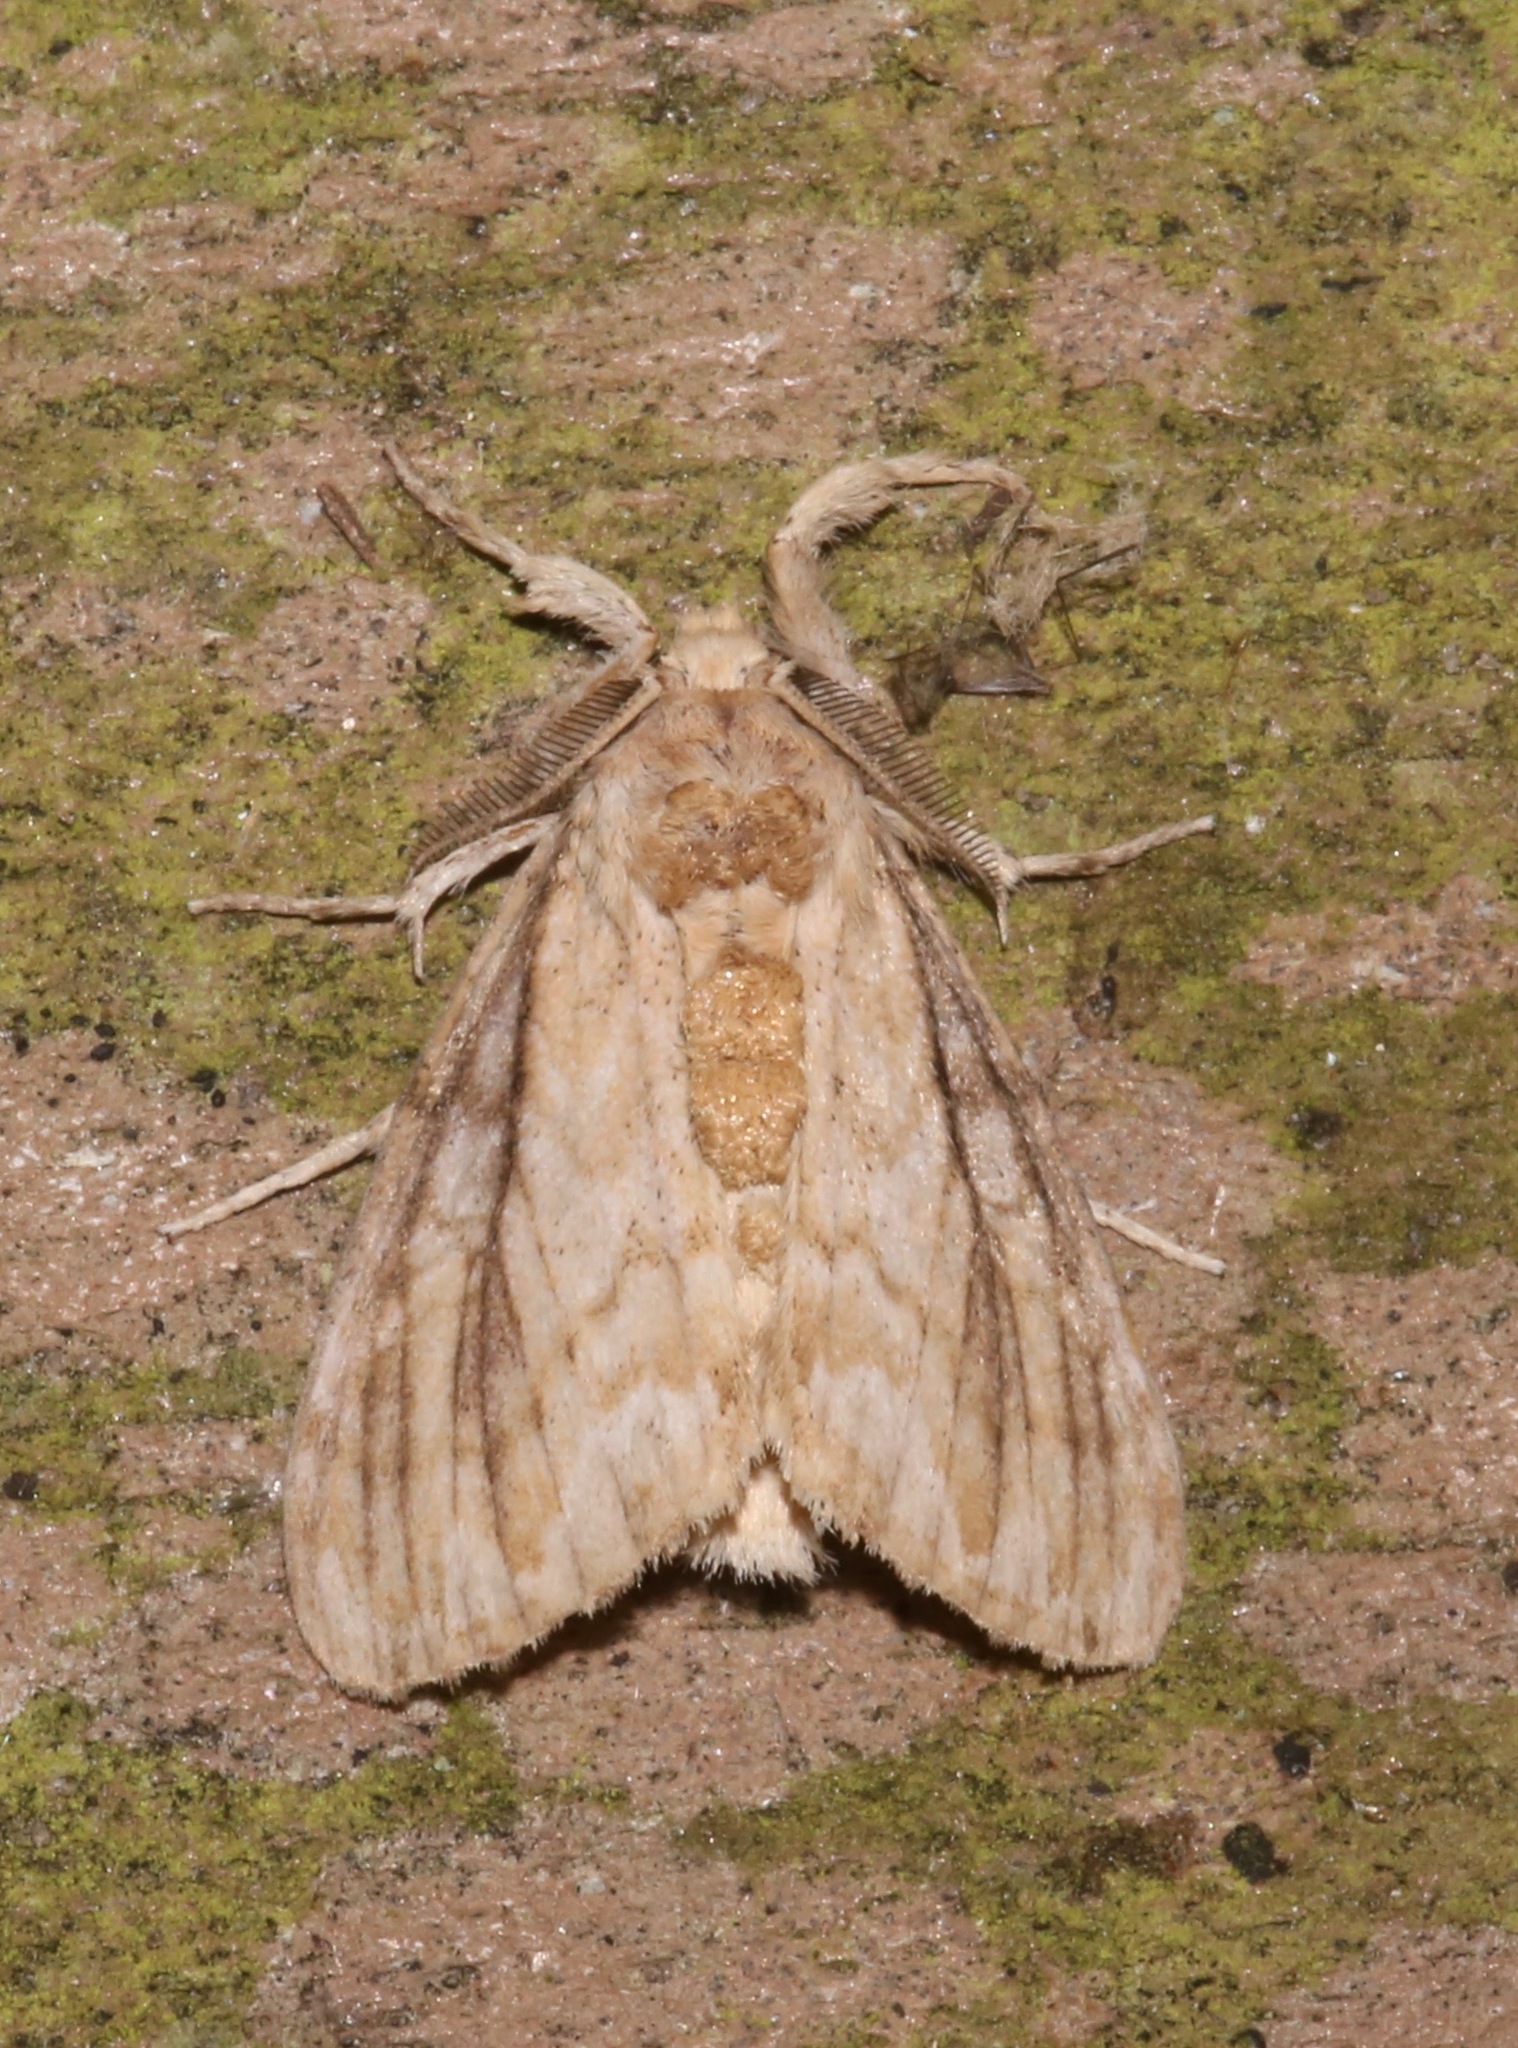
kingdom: Animalia
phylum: Arthropoda
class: Insecta
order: Lepidoptera
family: Erebidae
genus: Dasychira
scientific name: Dasychira atrivenosa
